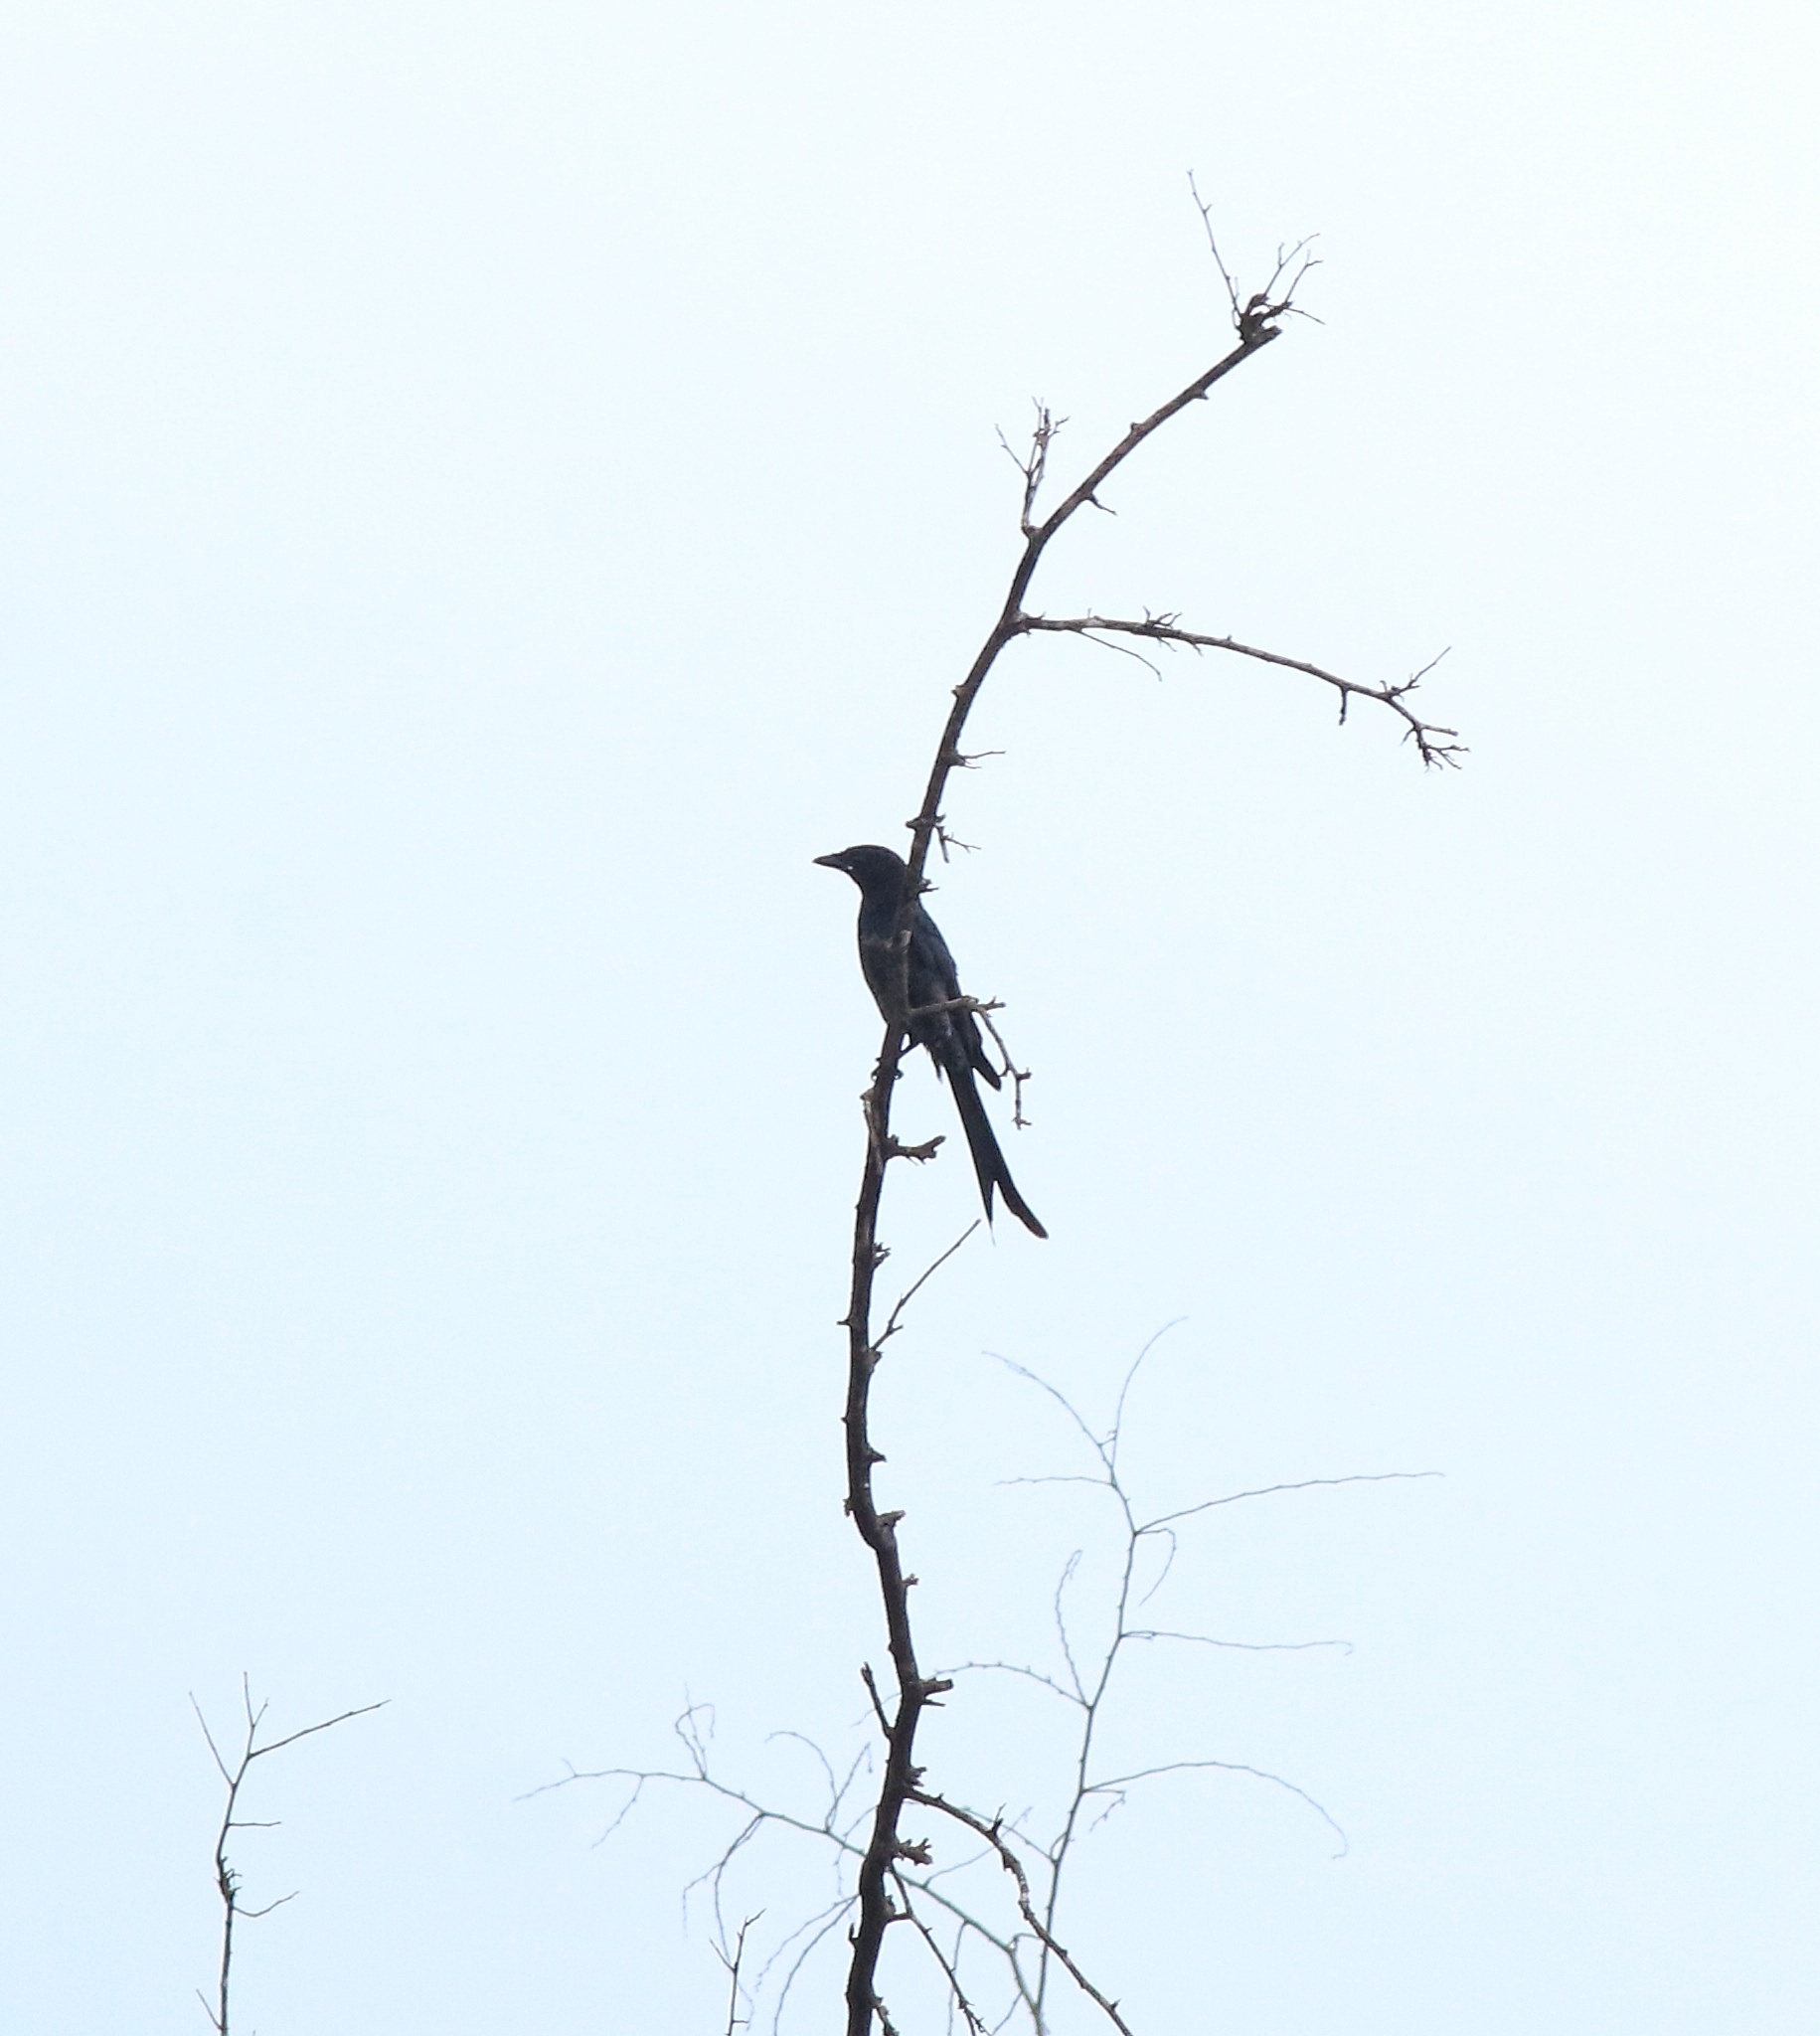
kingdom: Animalia
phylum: Chordata
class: Aves
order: Passeriformes
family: Dicruridae
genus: Dicrurus
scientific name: Dicrurus macrocercus
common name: Black drongo
